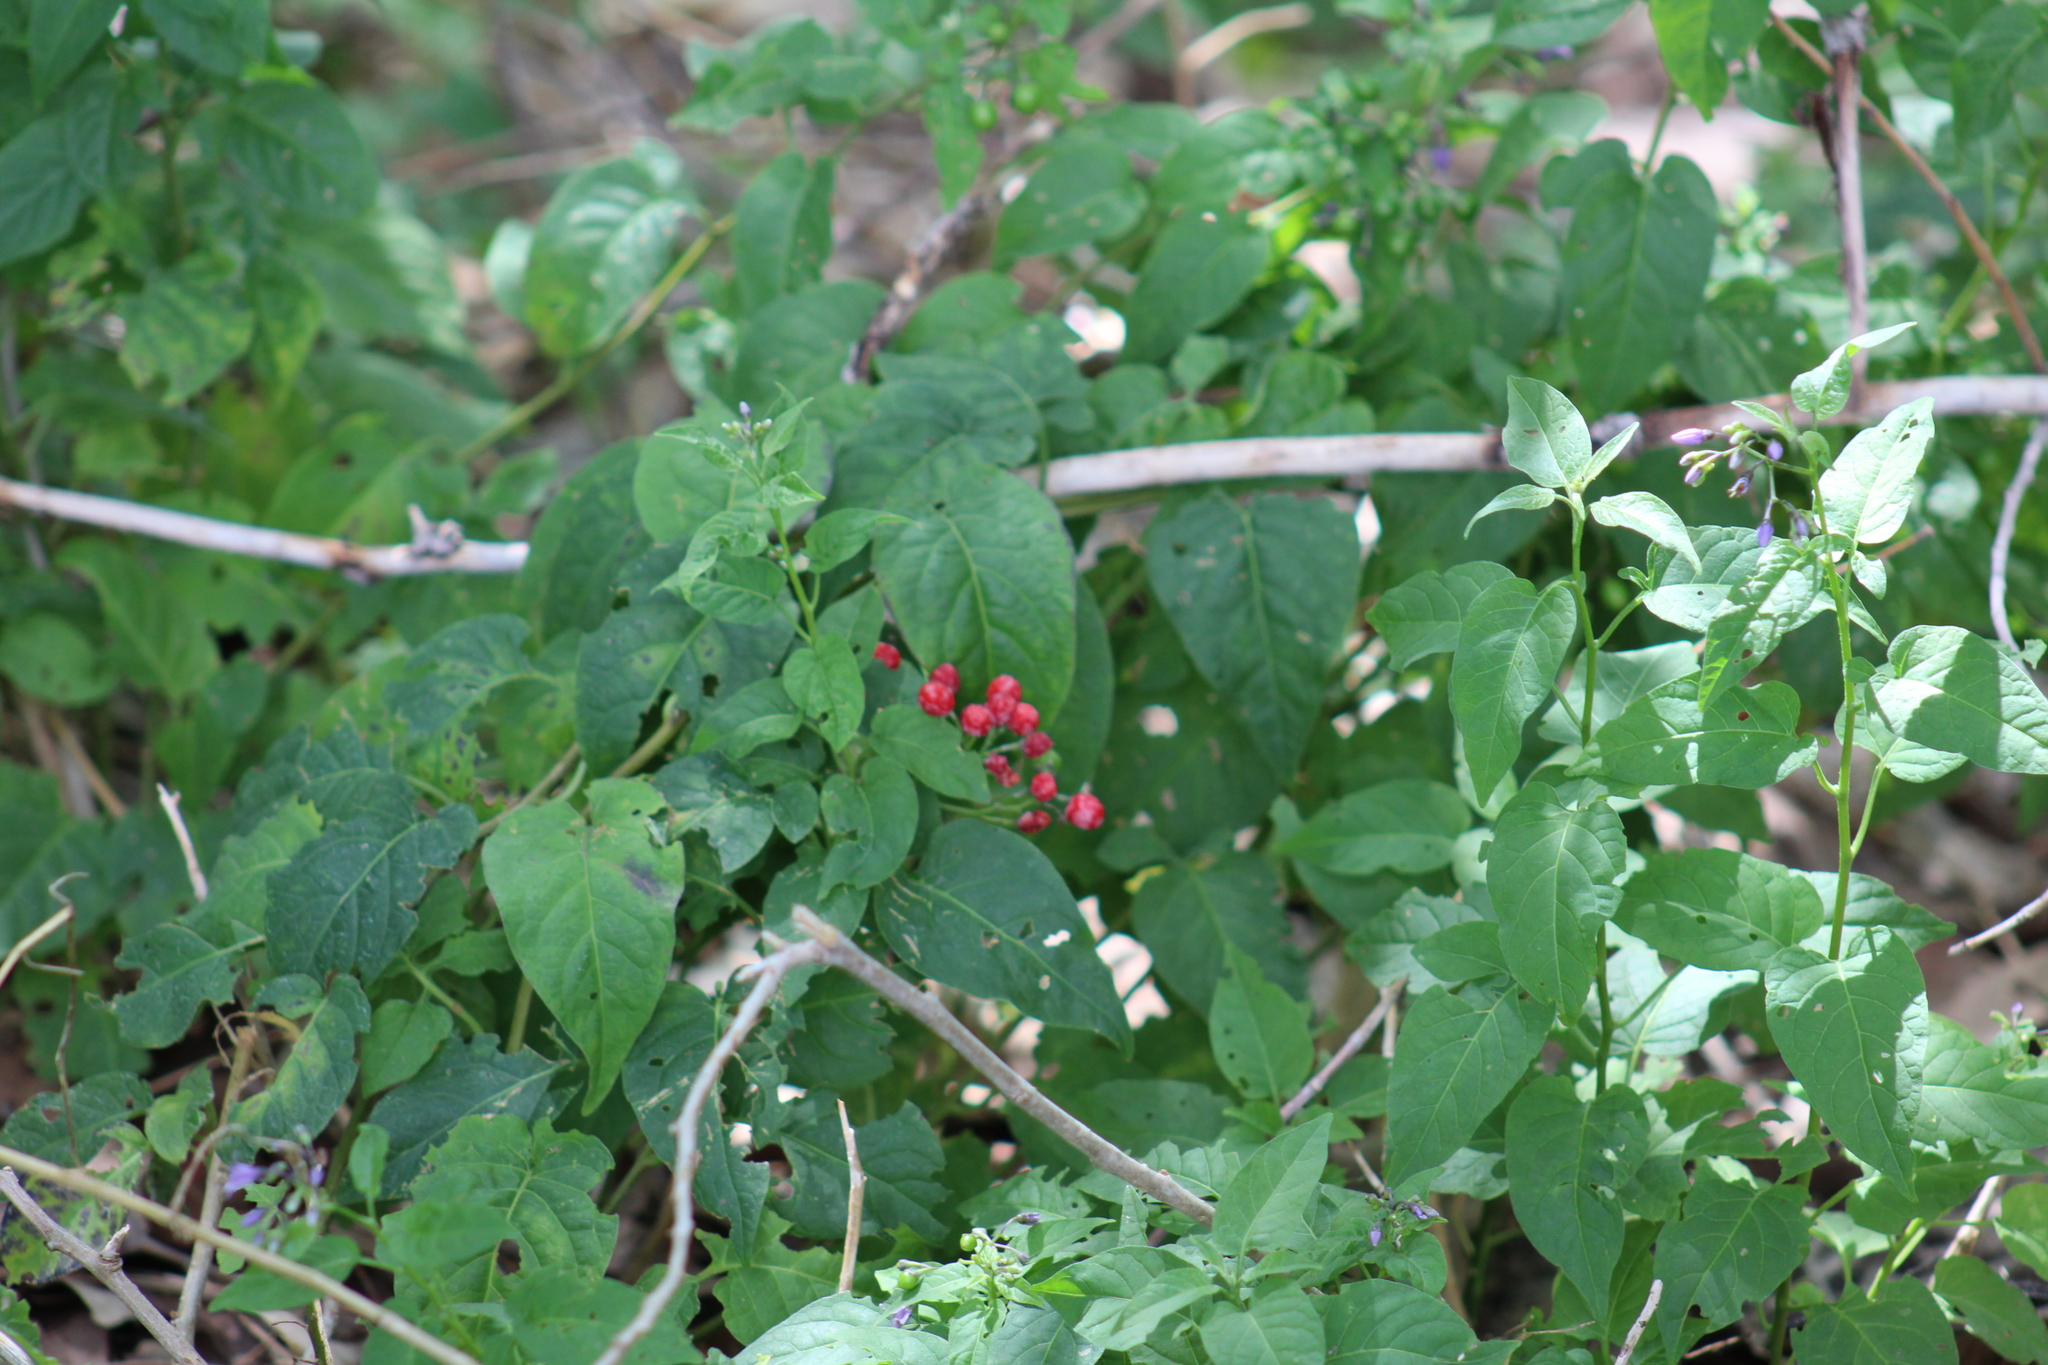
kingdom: Plantae
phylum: Tracheophyta
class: Magnoliopsida
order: Solanales
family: Solanaceae
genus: Solanum
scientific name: Solanum dulcamara
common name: Climbing nightshade
